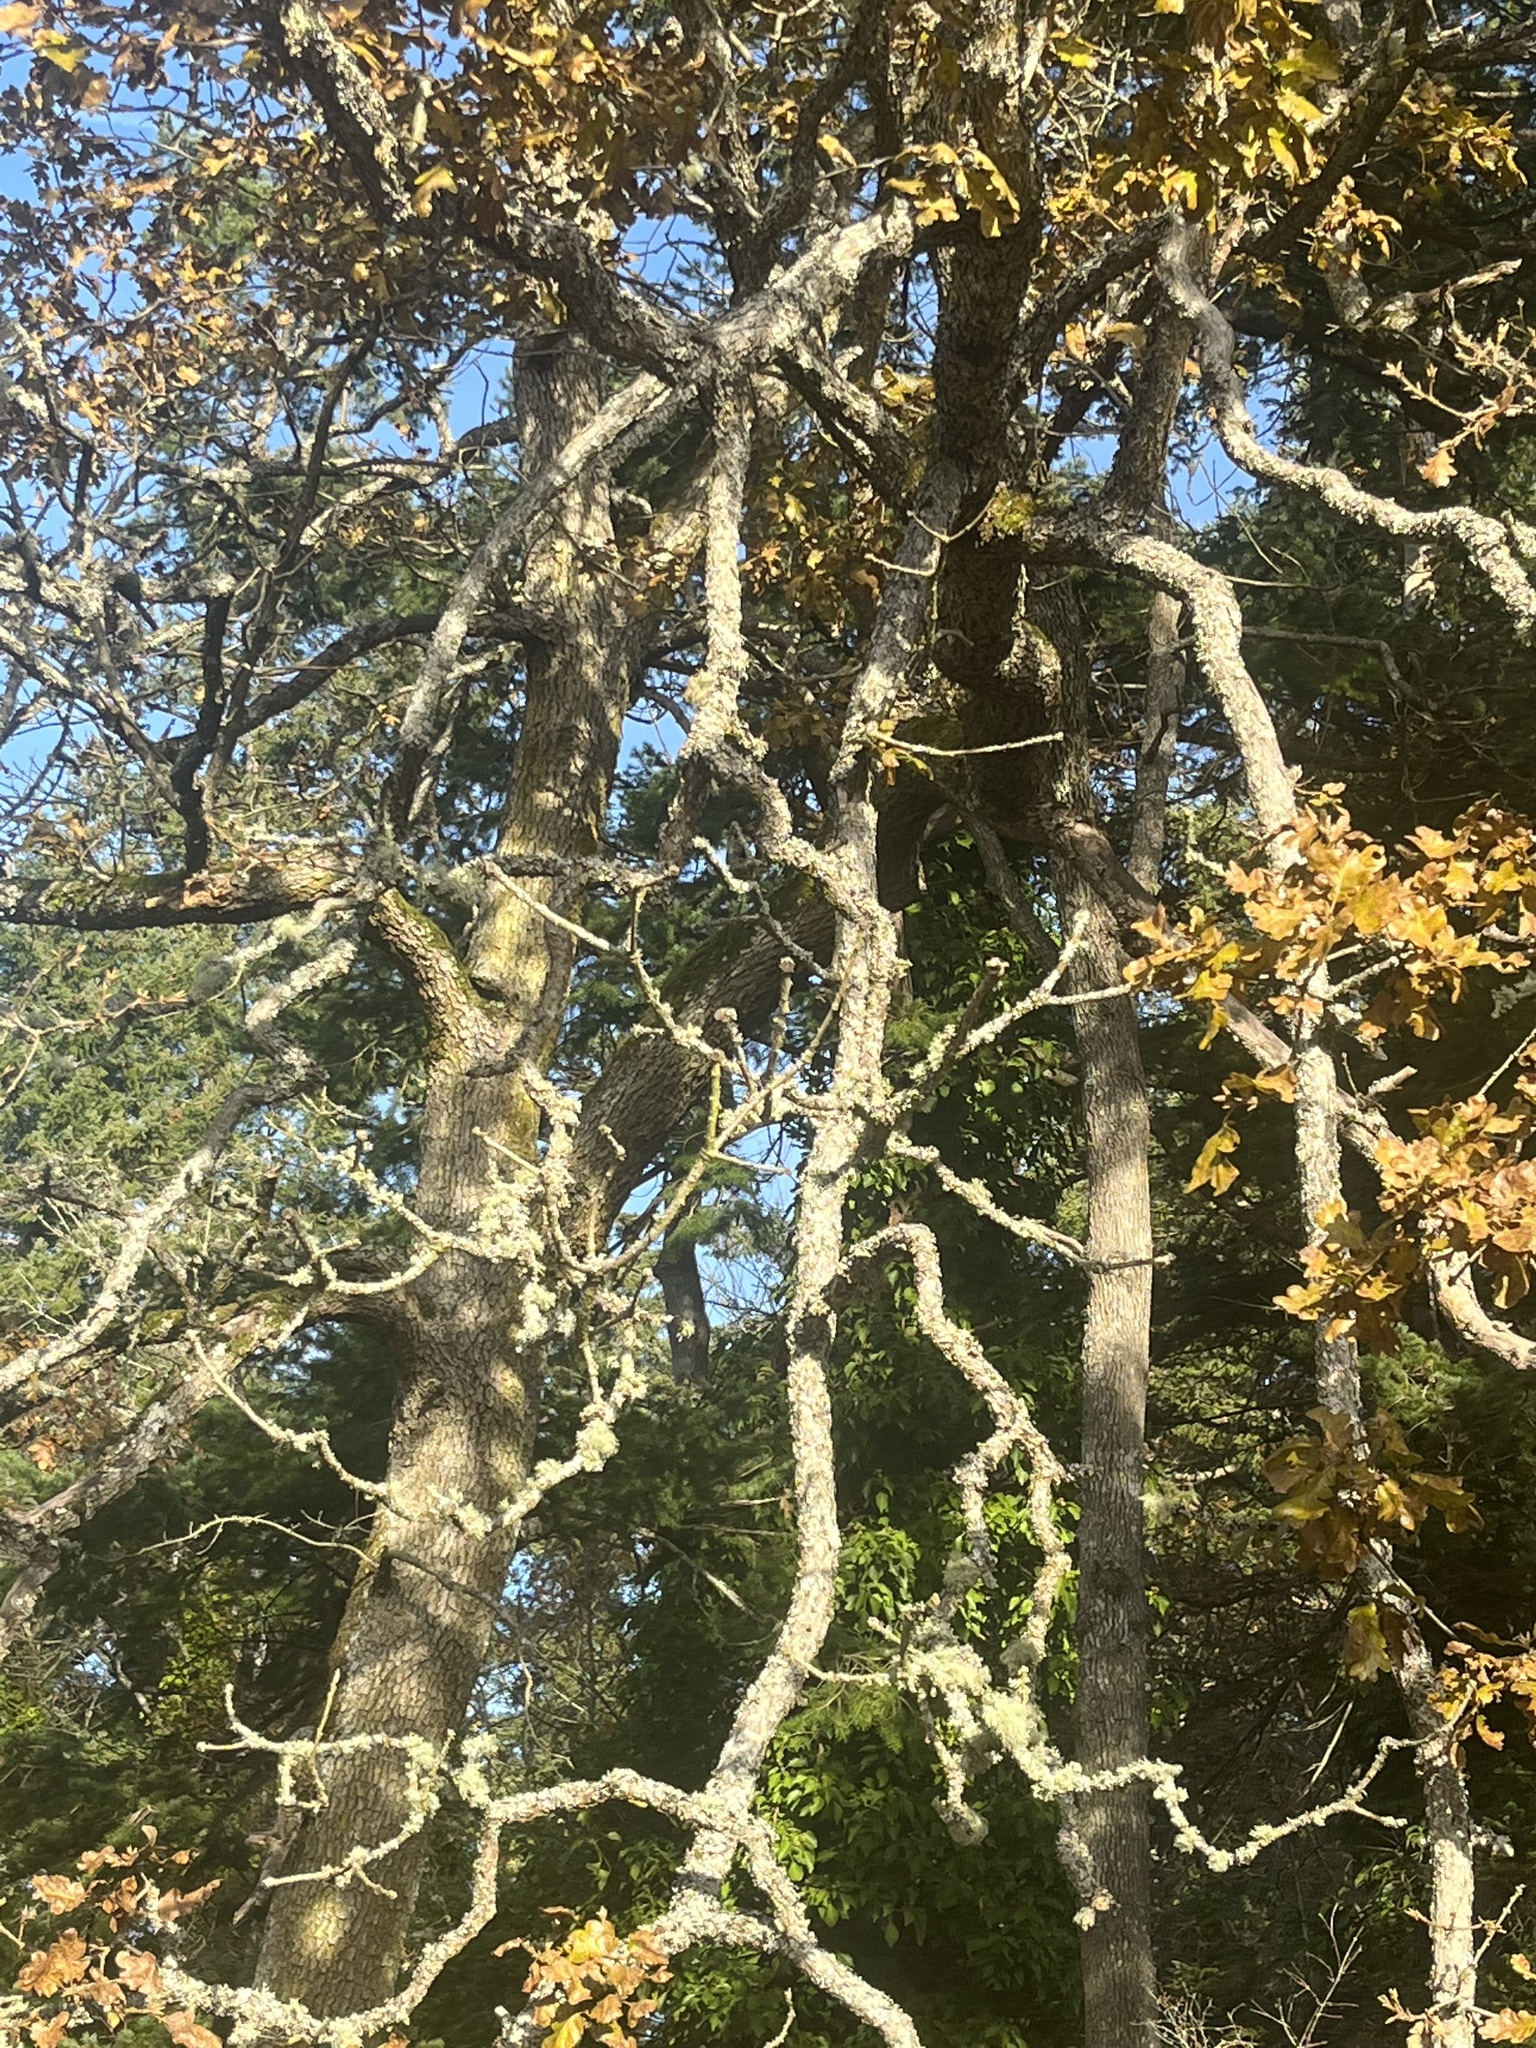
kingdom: Plantae
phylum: Tracheophyta
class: Magnoliopsida
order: Fagales
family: Fagaceae
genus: Quercus
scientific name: Quercus garryana
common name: Garry oak
